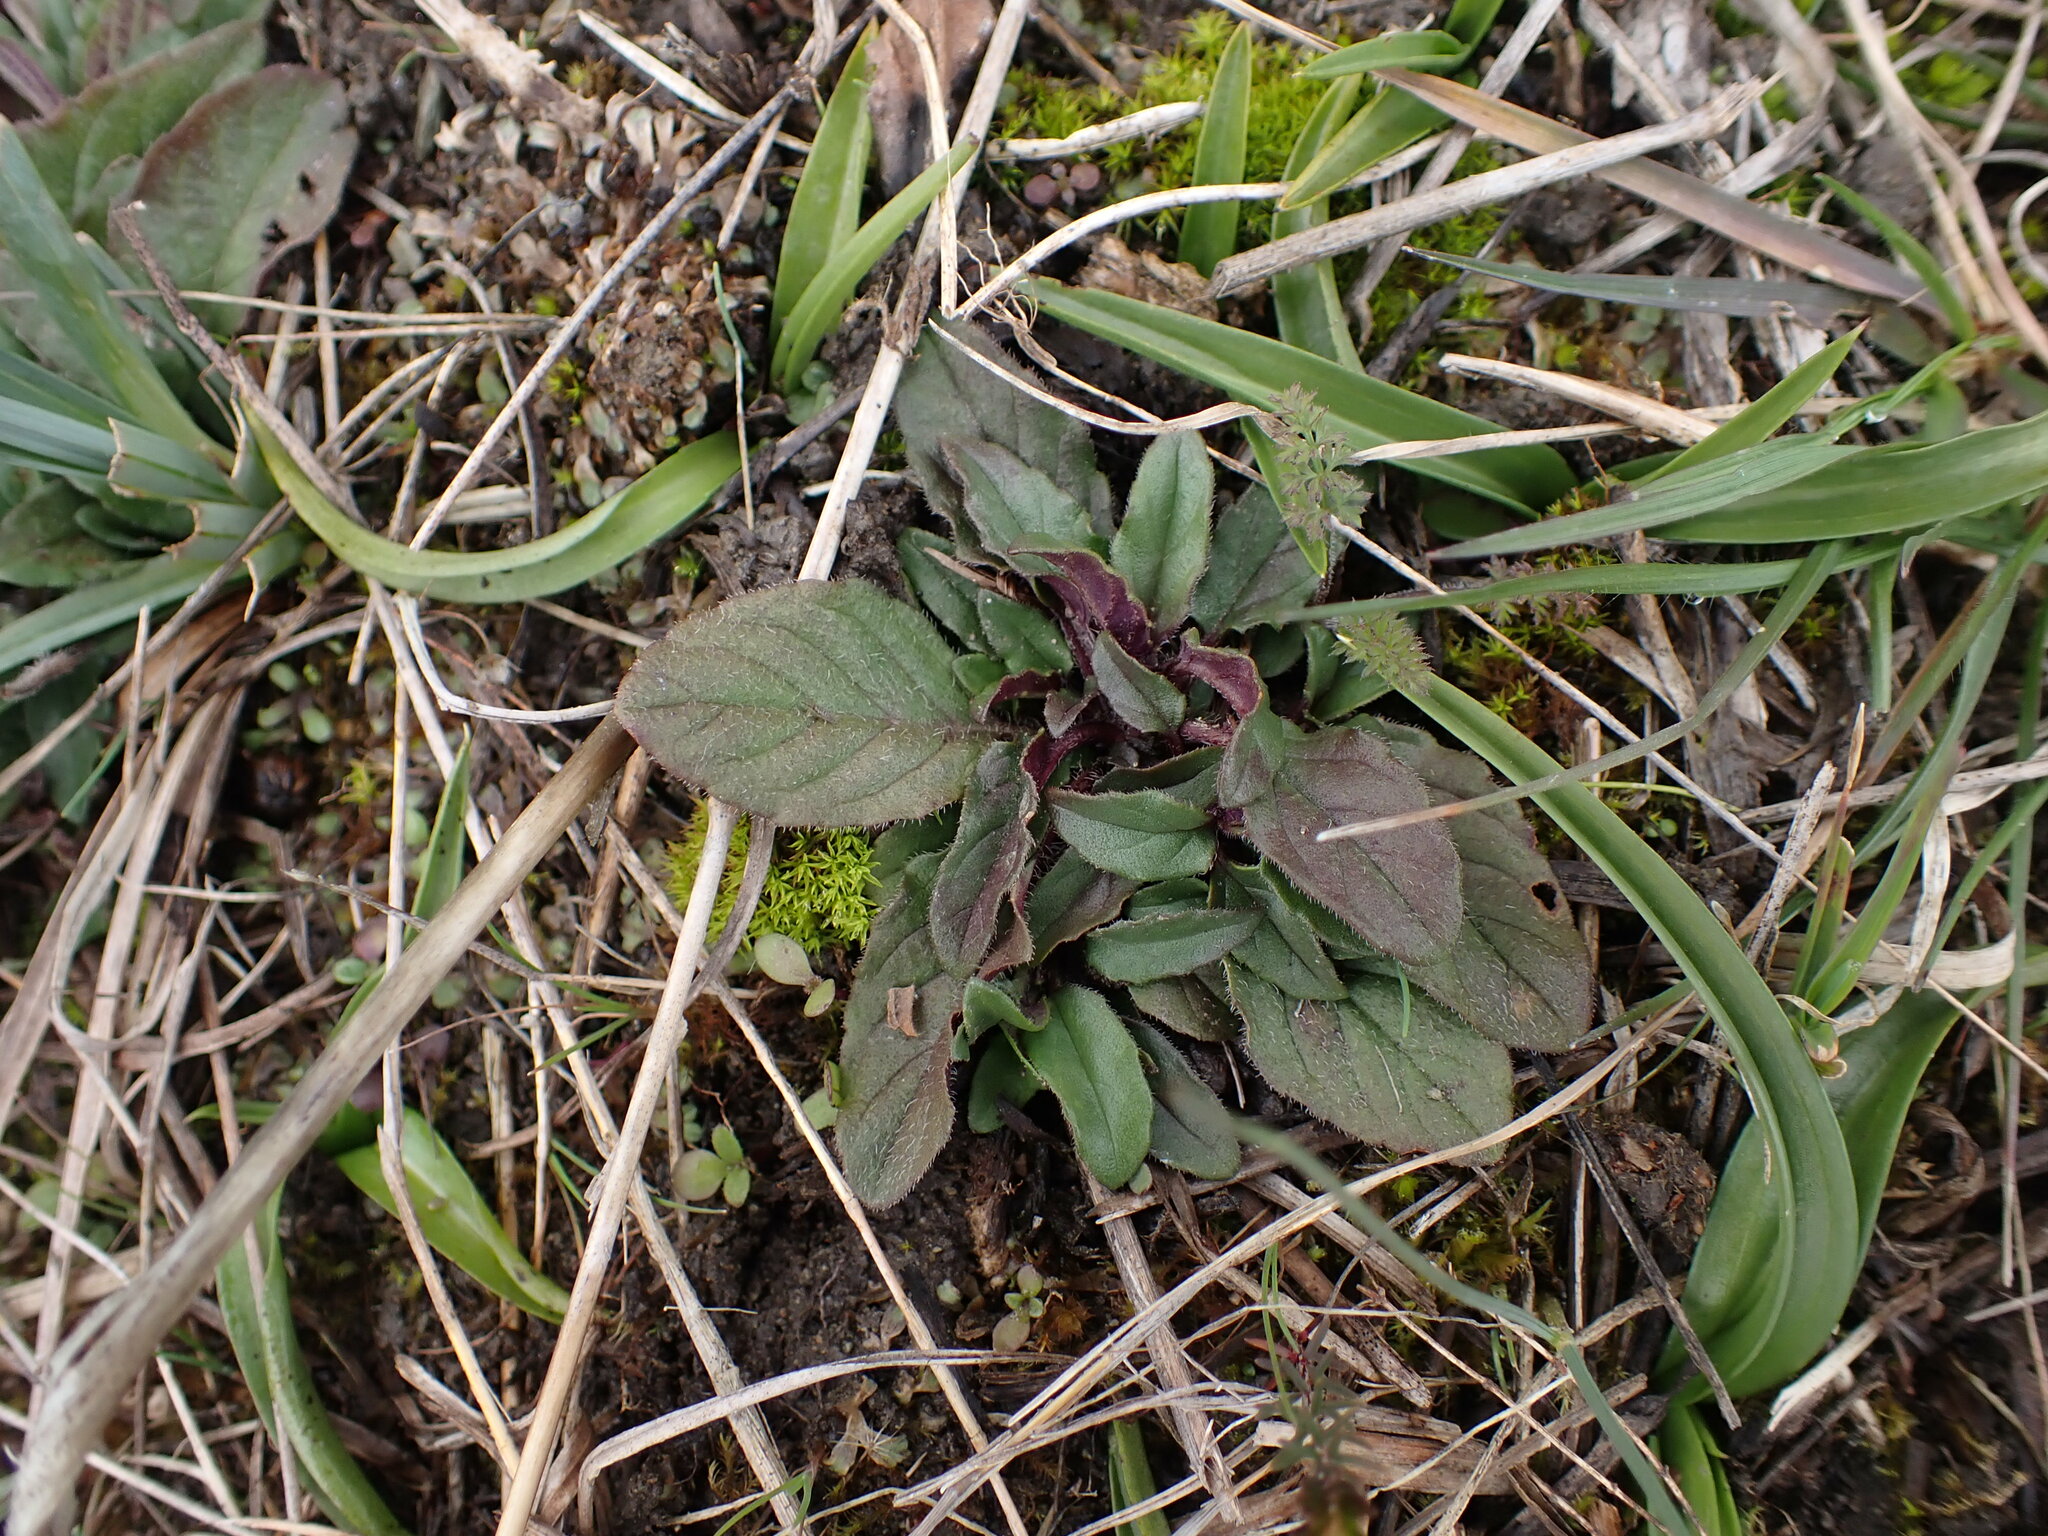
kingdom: Plantae
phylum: Tracheophyta
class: Magnoliopsida
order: Lamiales
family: Lamiaceae
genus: Prunella
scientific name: Prunella vulgaris
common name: Heal-all
